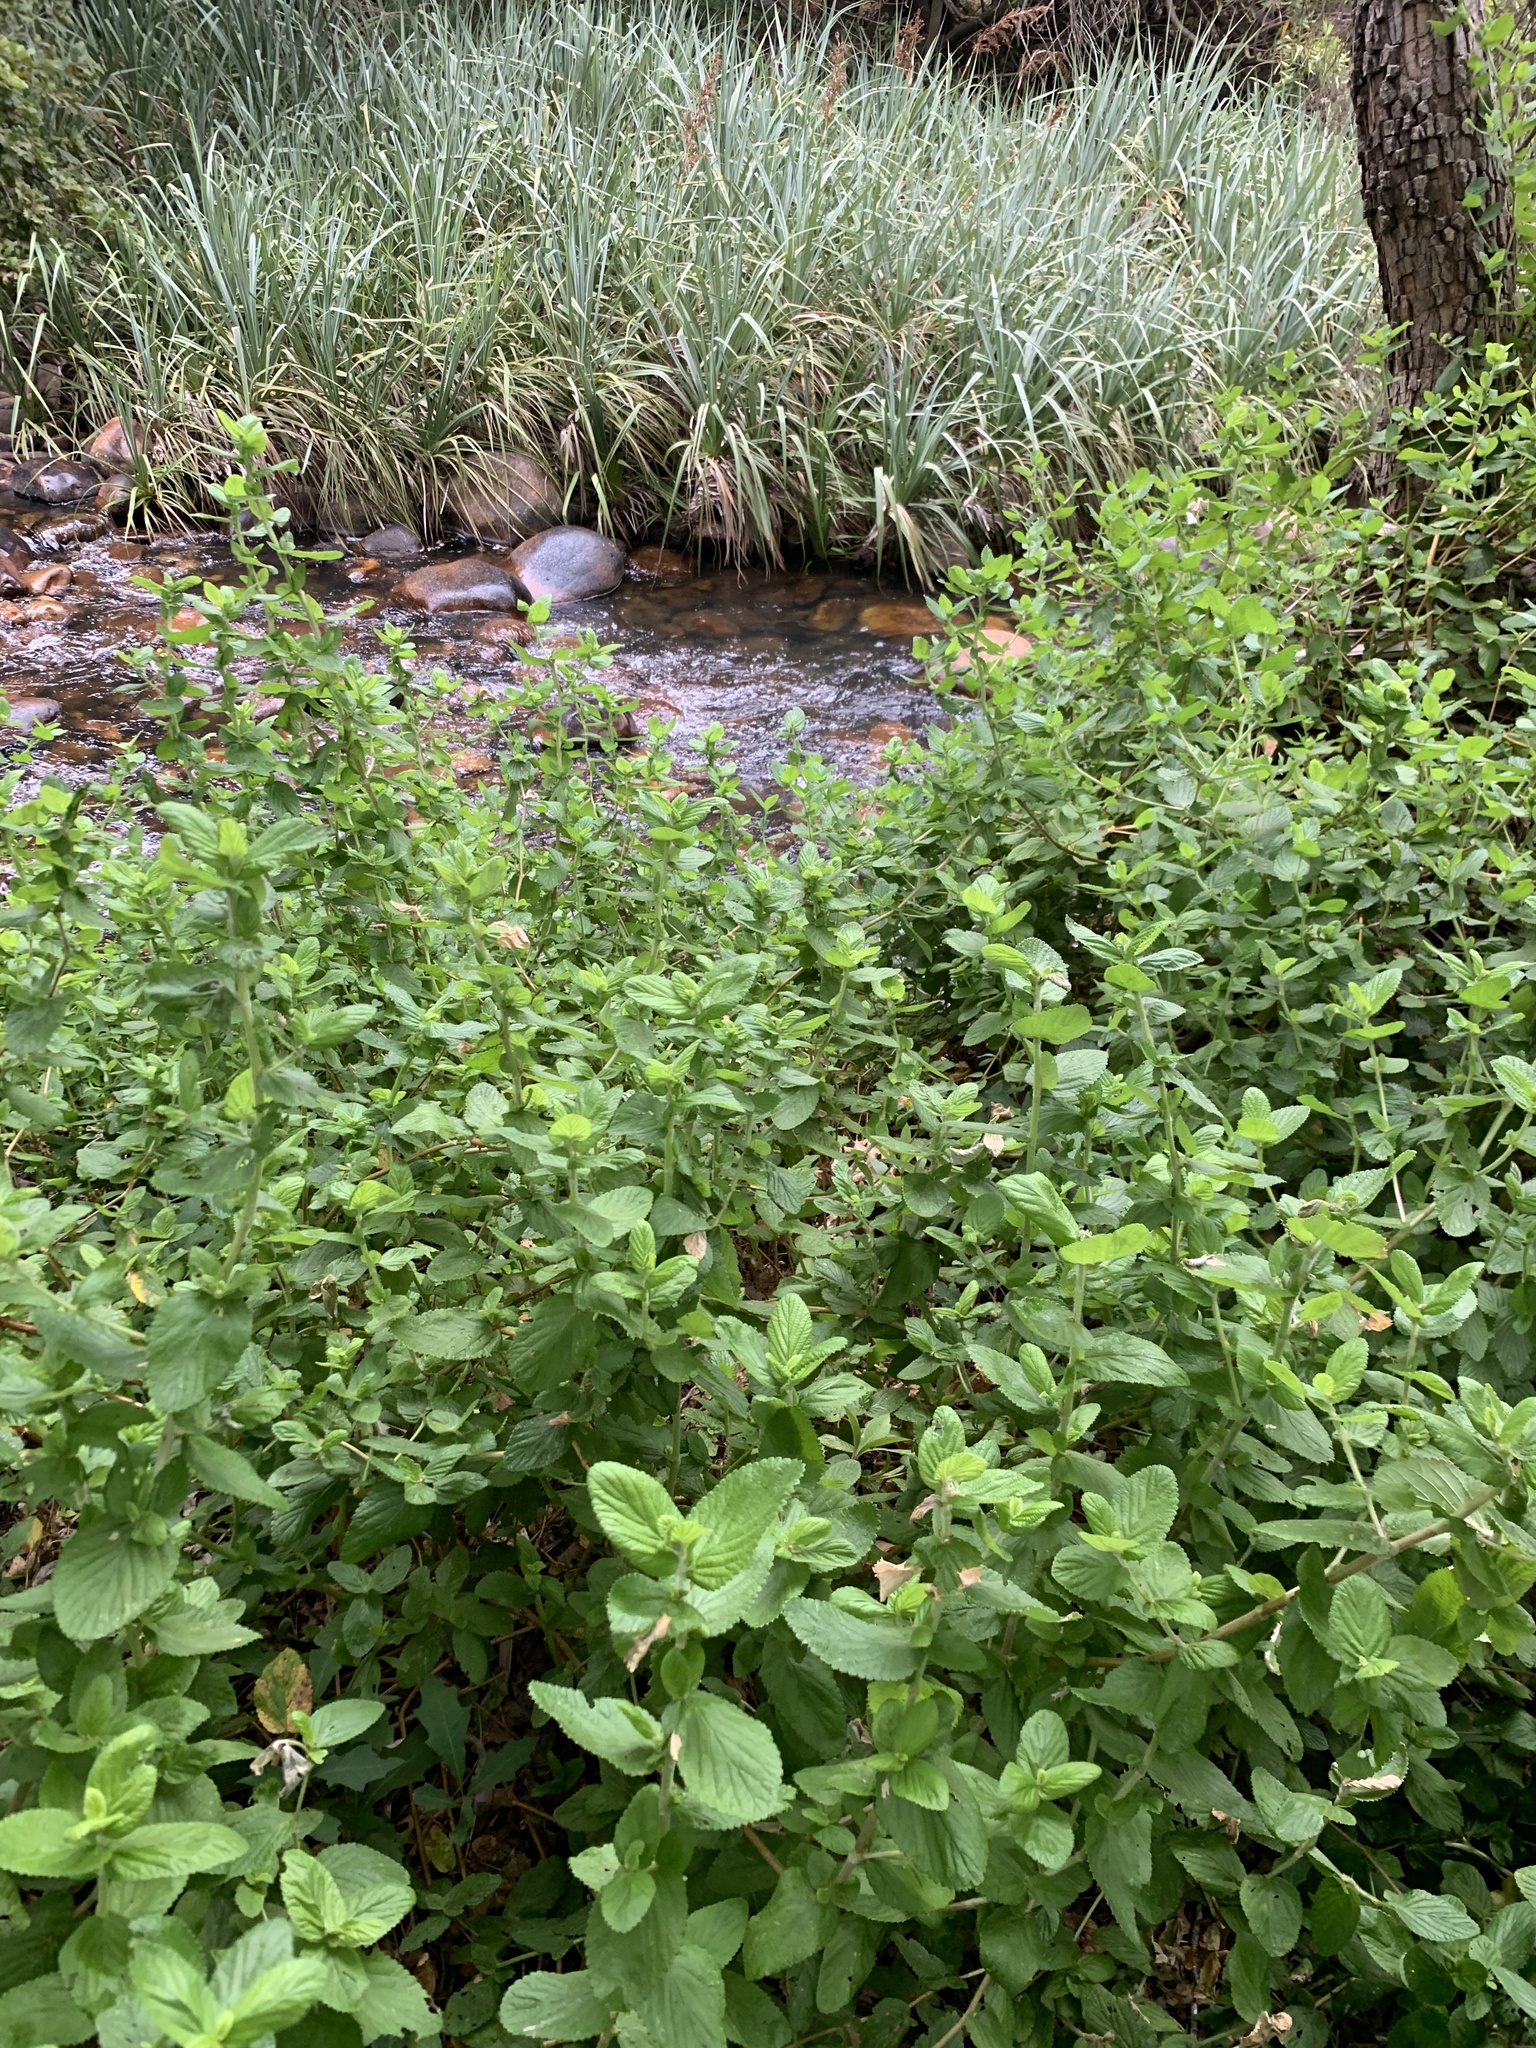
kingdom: Plantae
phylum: Tracheophyta
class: Magnoliopsida
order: Rosales
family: Rosaceae
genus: Cliffortia
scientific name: Cliffortia odorata
